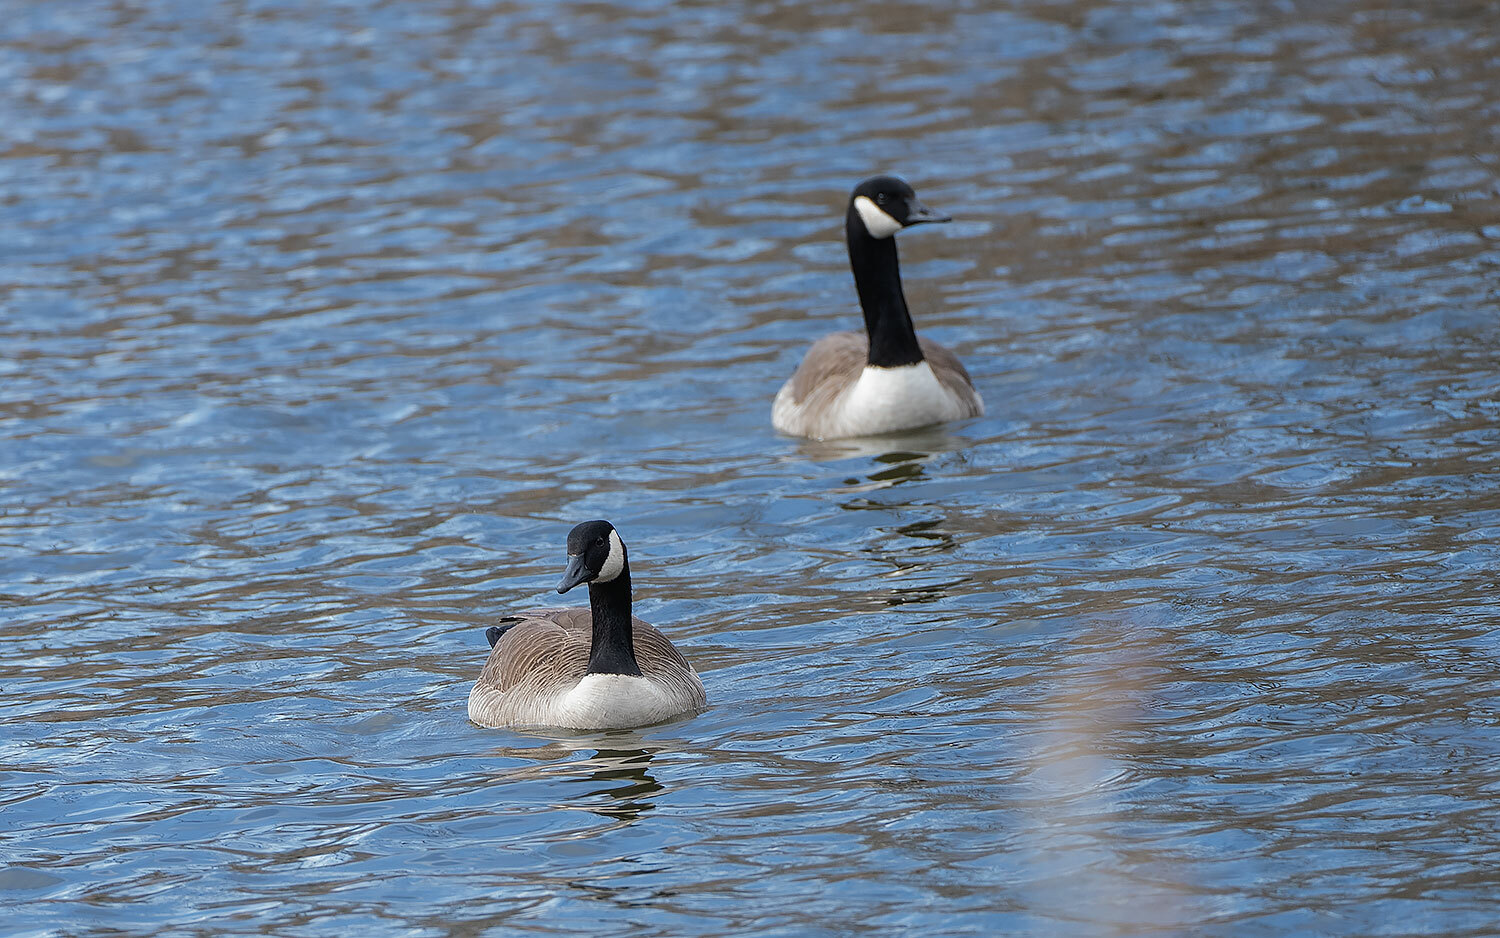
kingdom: Animalia
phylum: Chordata
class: Aves
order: Anseriformes
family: Anatidae
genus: Branta
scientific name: Branta canadensis
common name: Canada goose
